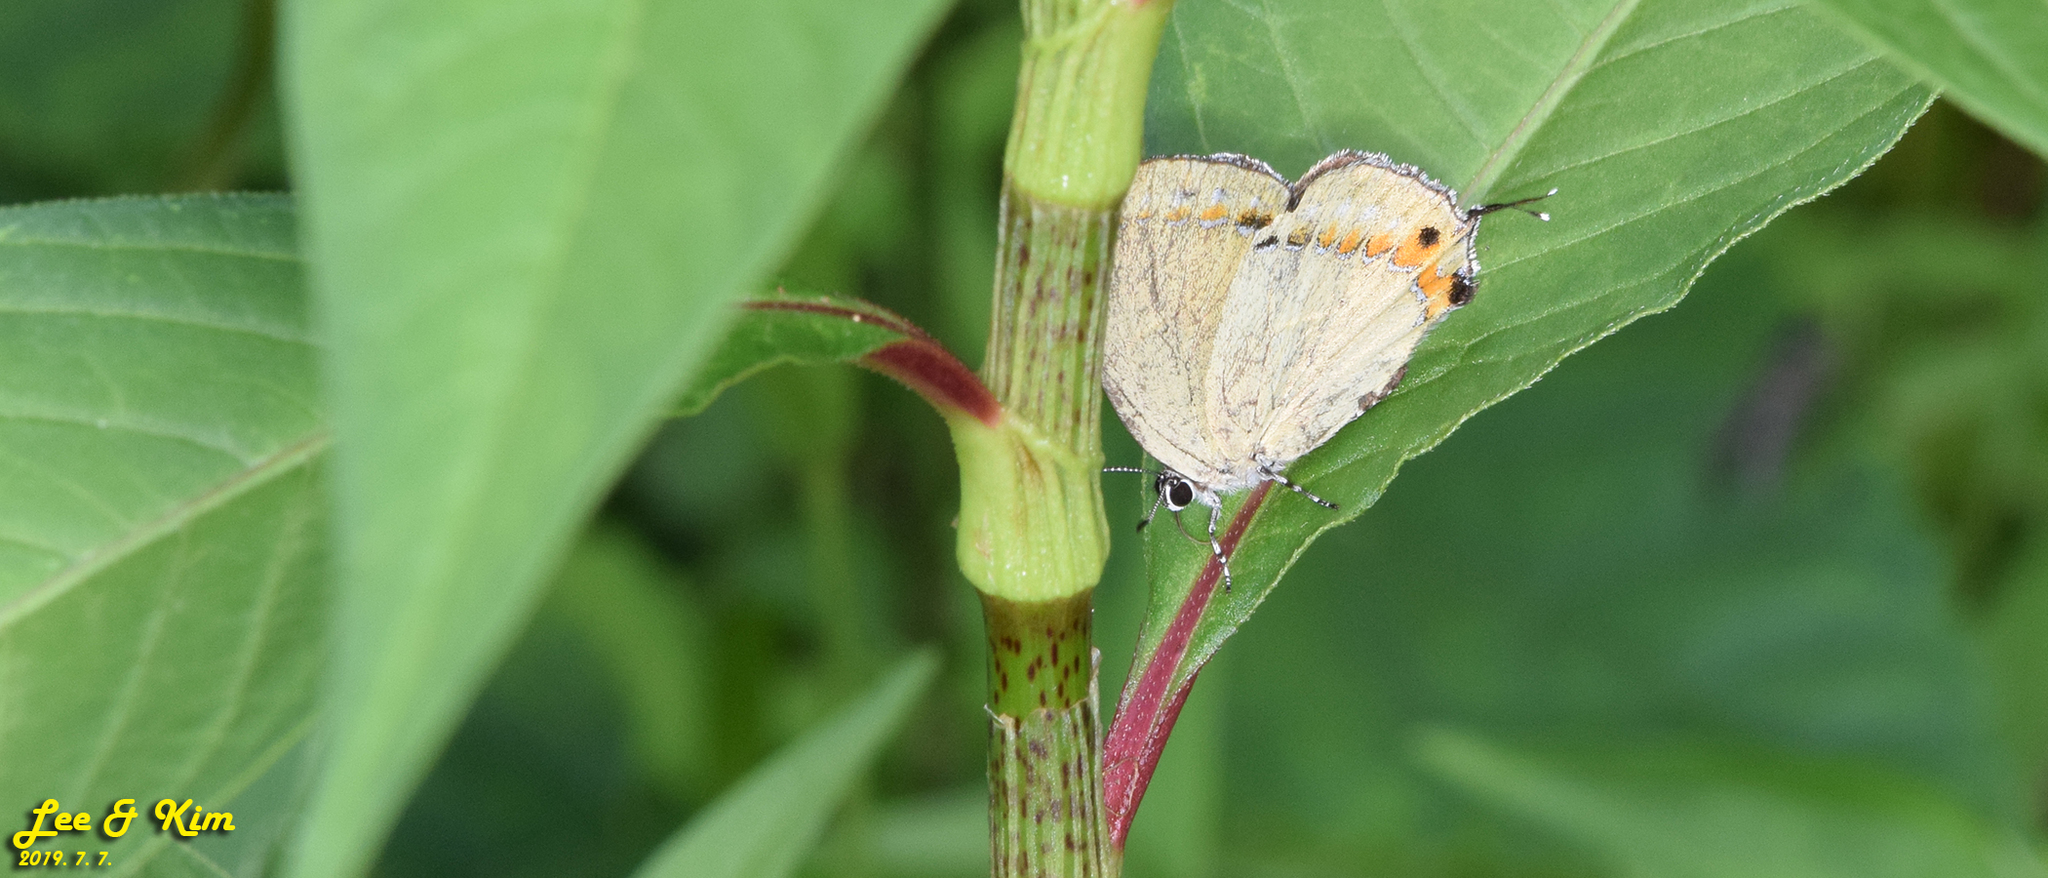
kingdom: Animalia
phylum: Arthropoda
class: Insecta
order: Lepidoptera
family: Lycaenidae
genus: Ussuriana
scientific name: Ussuriana michaelis
